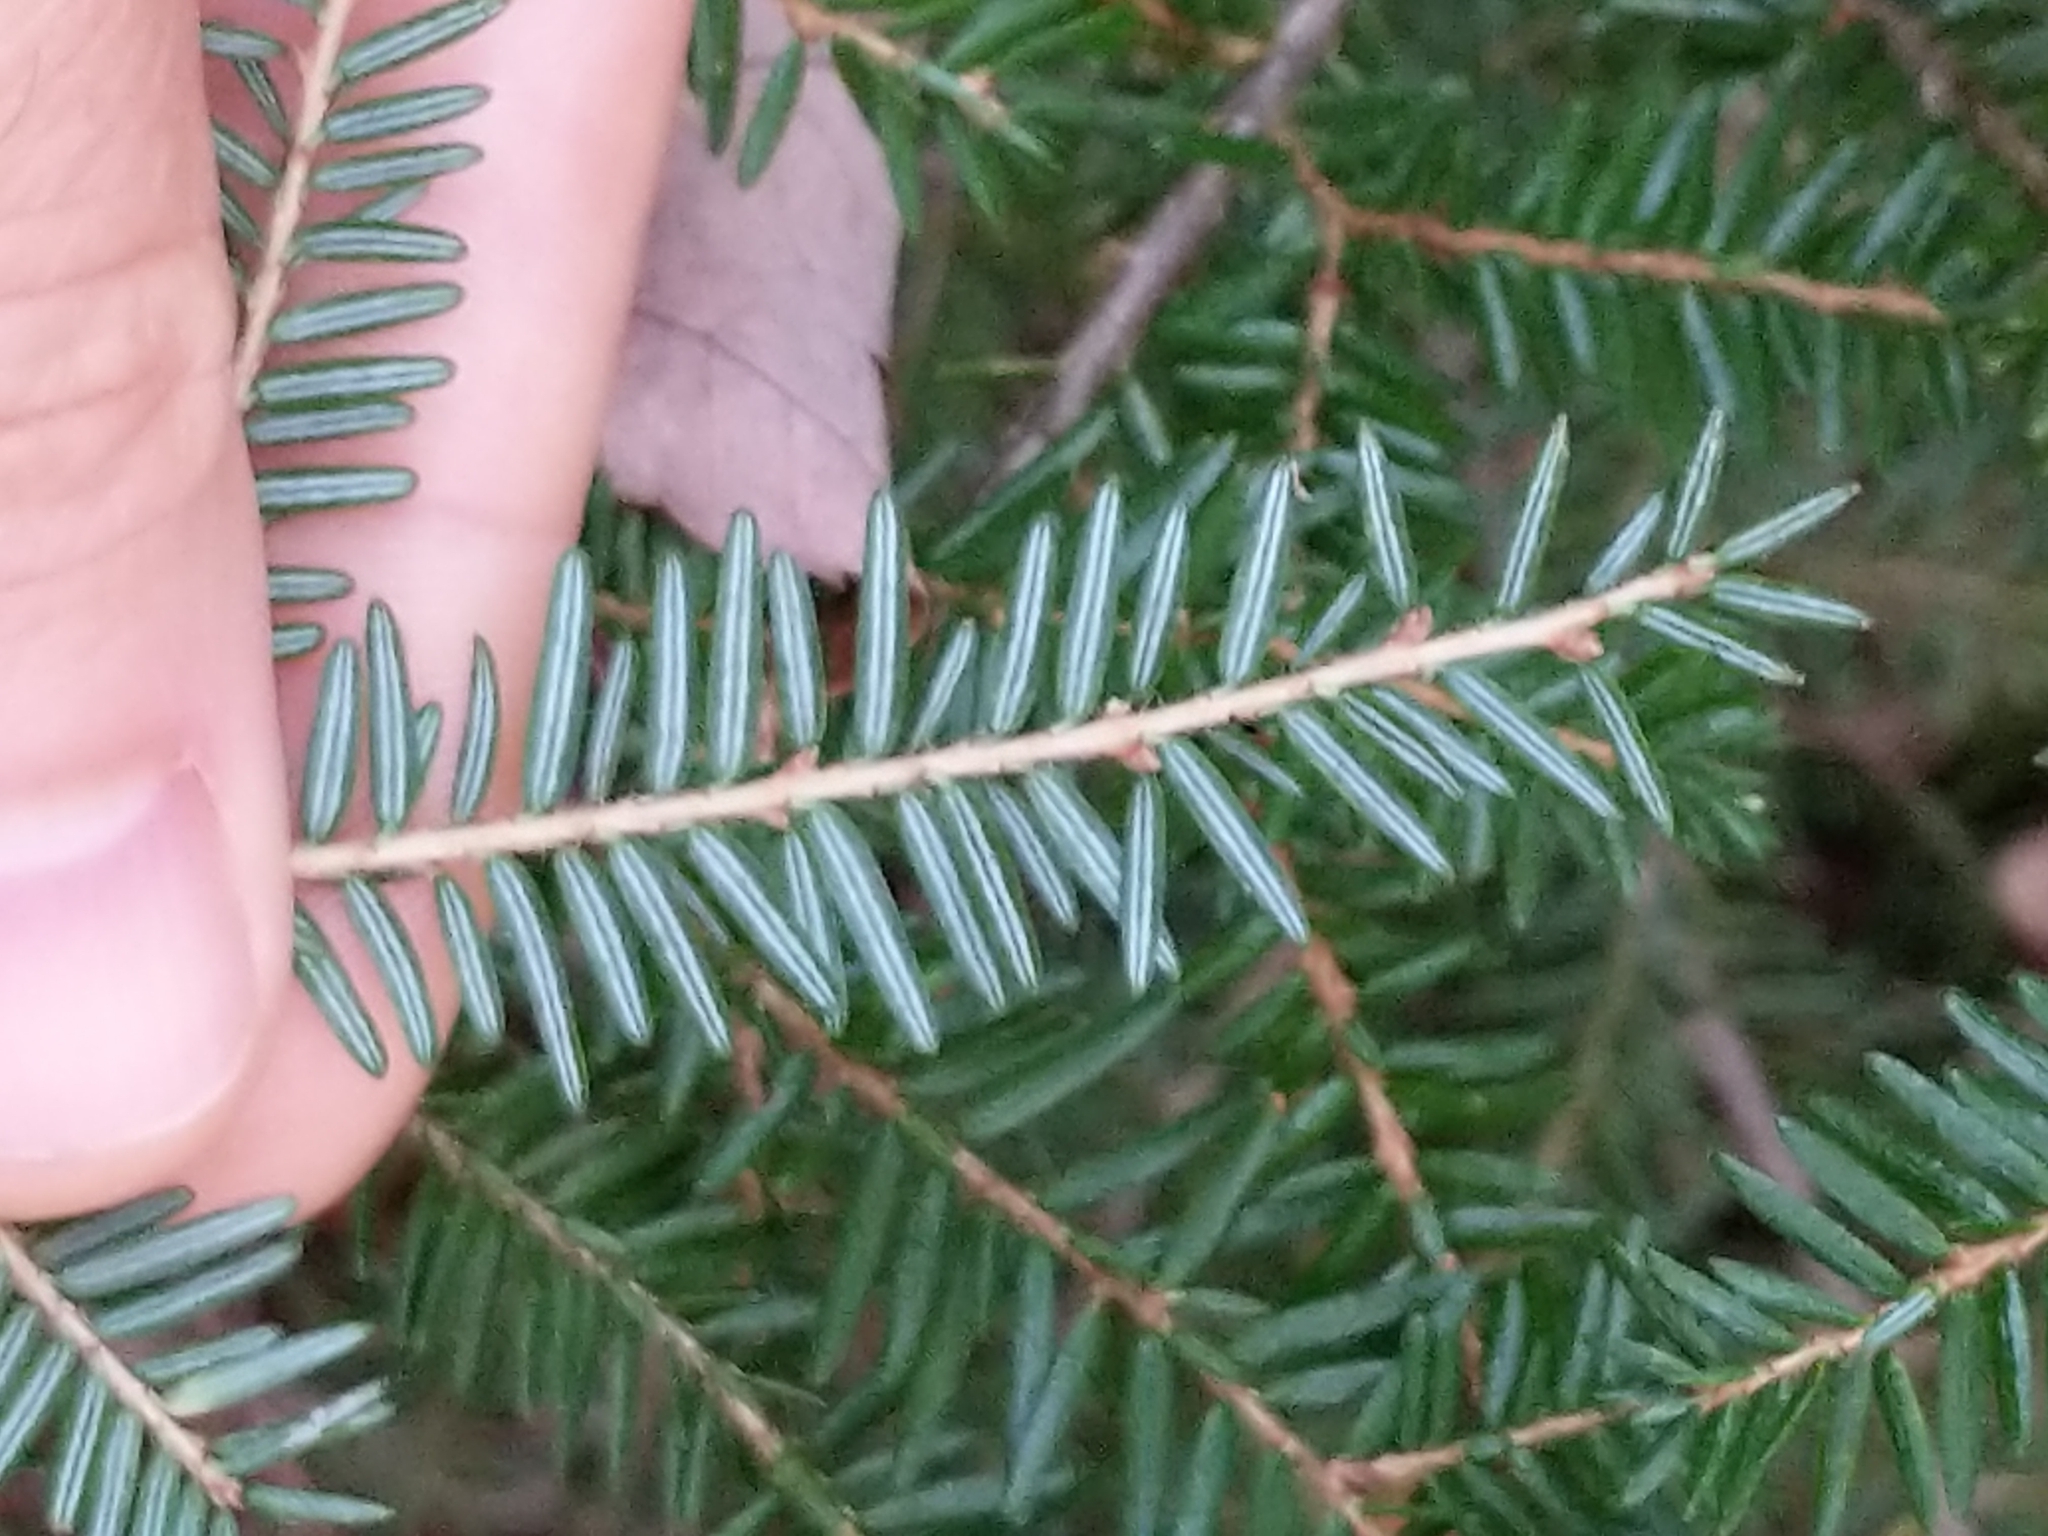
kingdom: Plantae
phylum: Tracheophyta
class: Pinopsida
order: Pinales
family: Pinaceae
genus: Tsuga
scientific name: Tsuga canadensis
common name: Eastern hemlock
